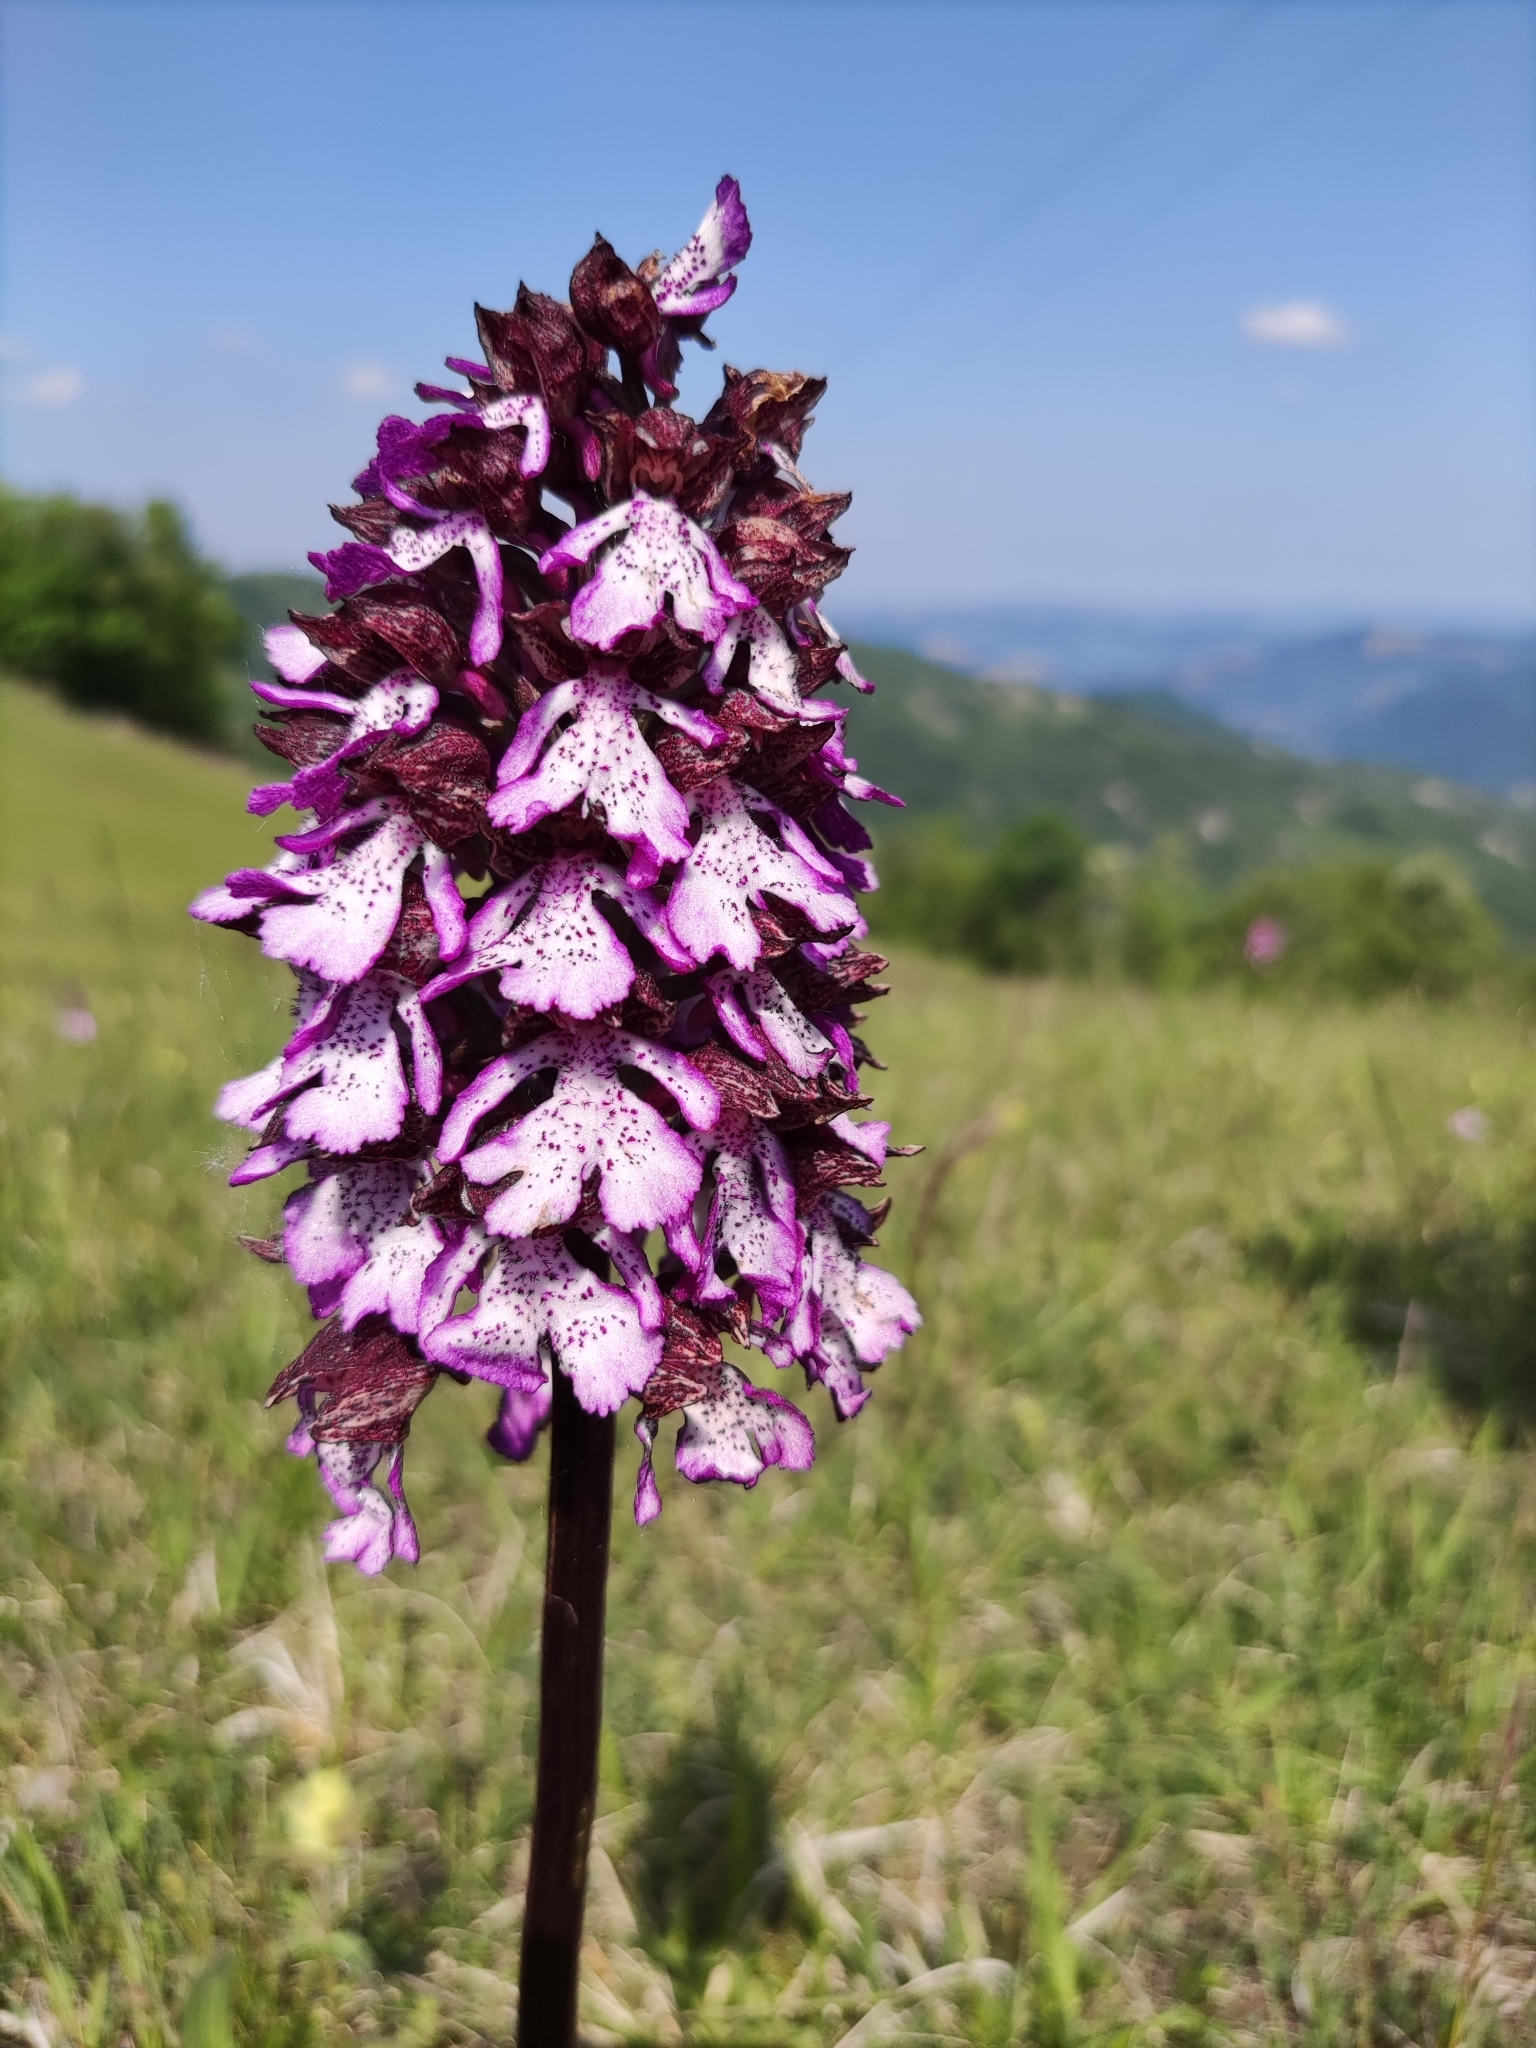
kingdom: Plantae
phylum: Tracheophyta
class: Liliopsida
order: Asparagales
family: Orchidaceae
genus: Orchis
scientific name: Orchis purpurea
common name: Lady orchid
